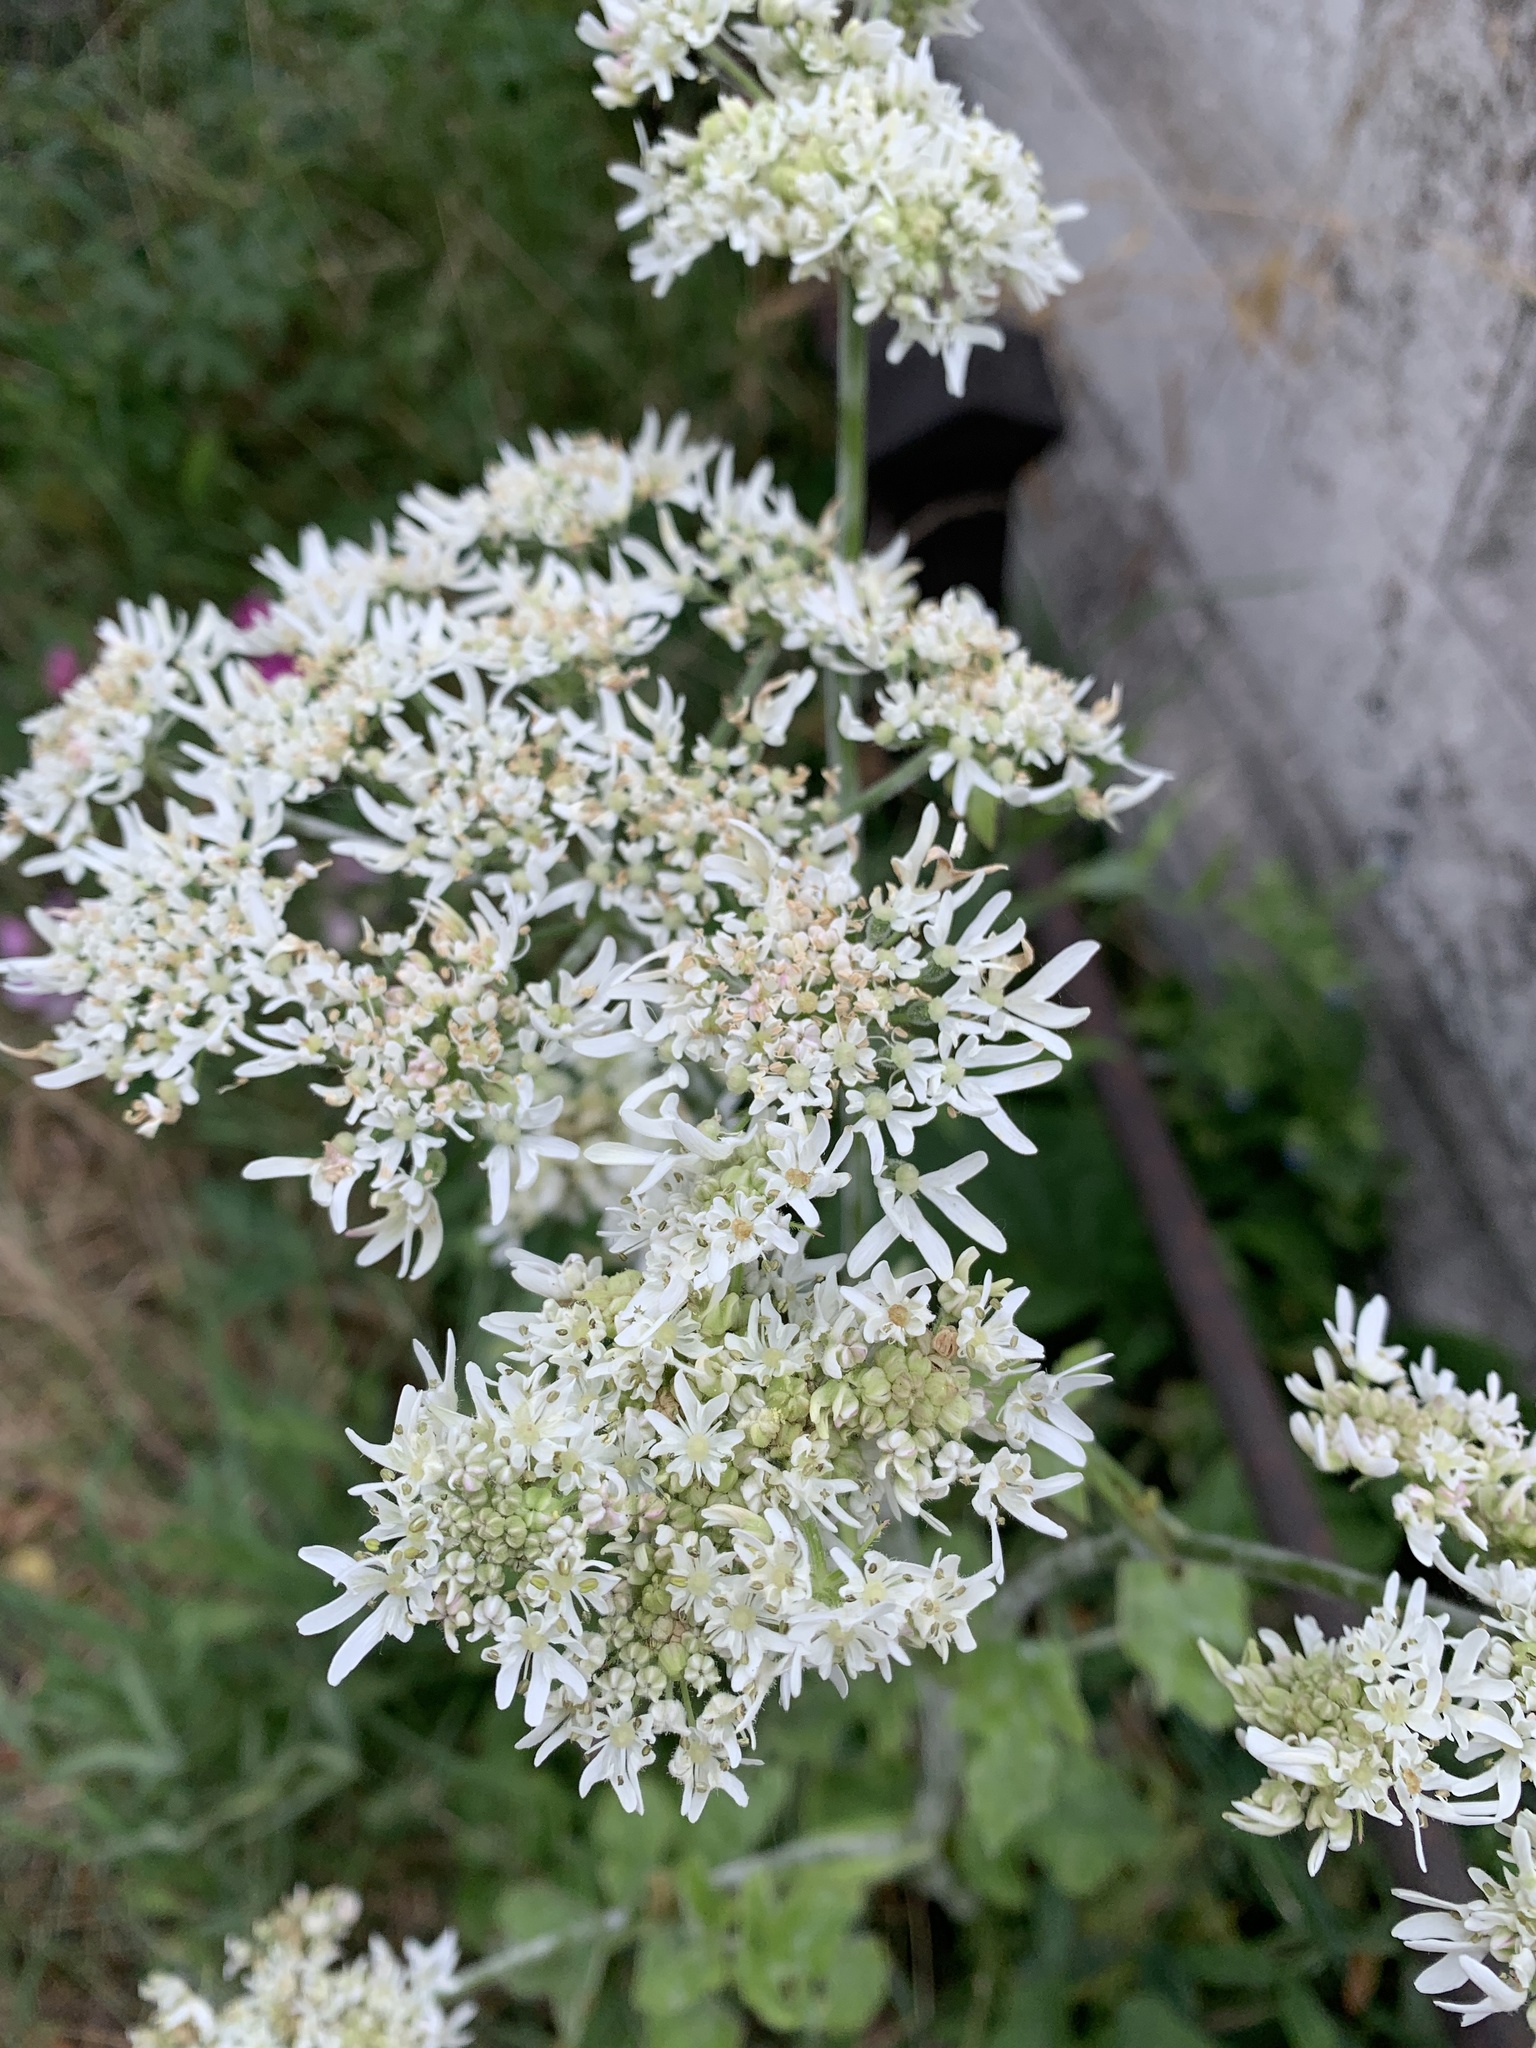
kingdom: Plantae
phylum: Tracheophyta
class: Magnoliopsida
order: Apiales
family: Apiaceae
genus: Heracleum
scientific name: Heracleum sphondylium
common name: Hogweed
